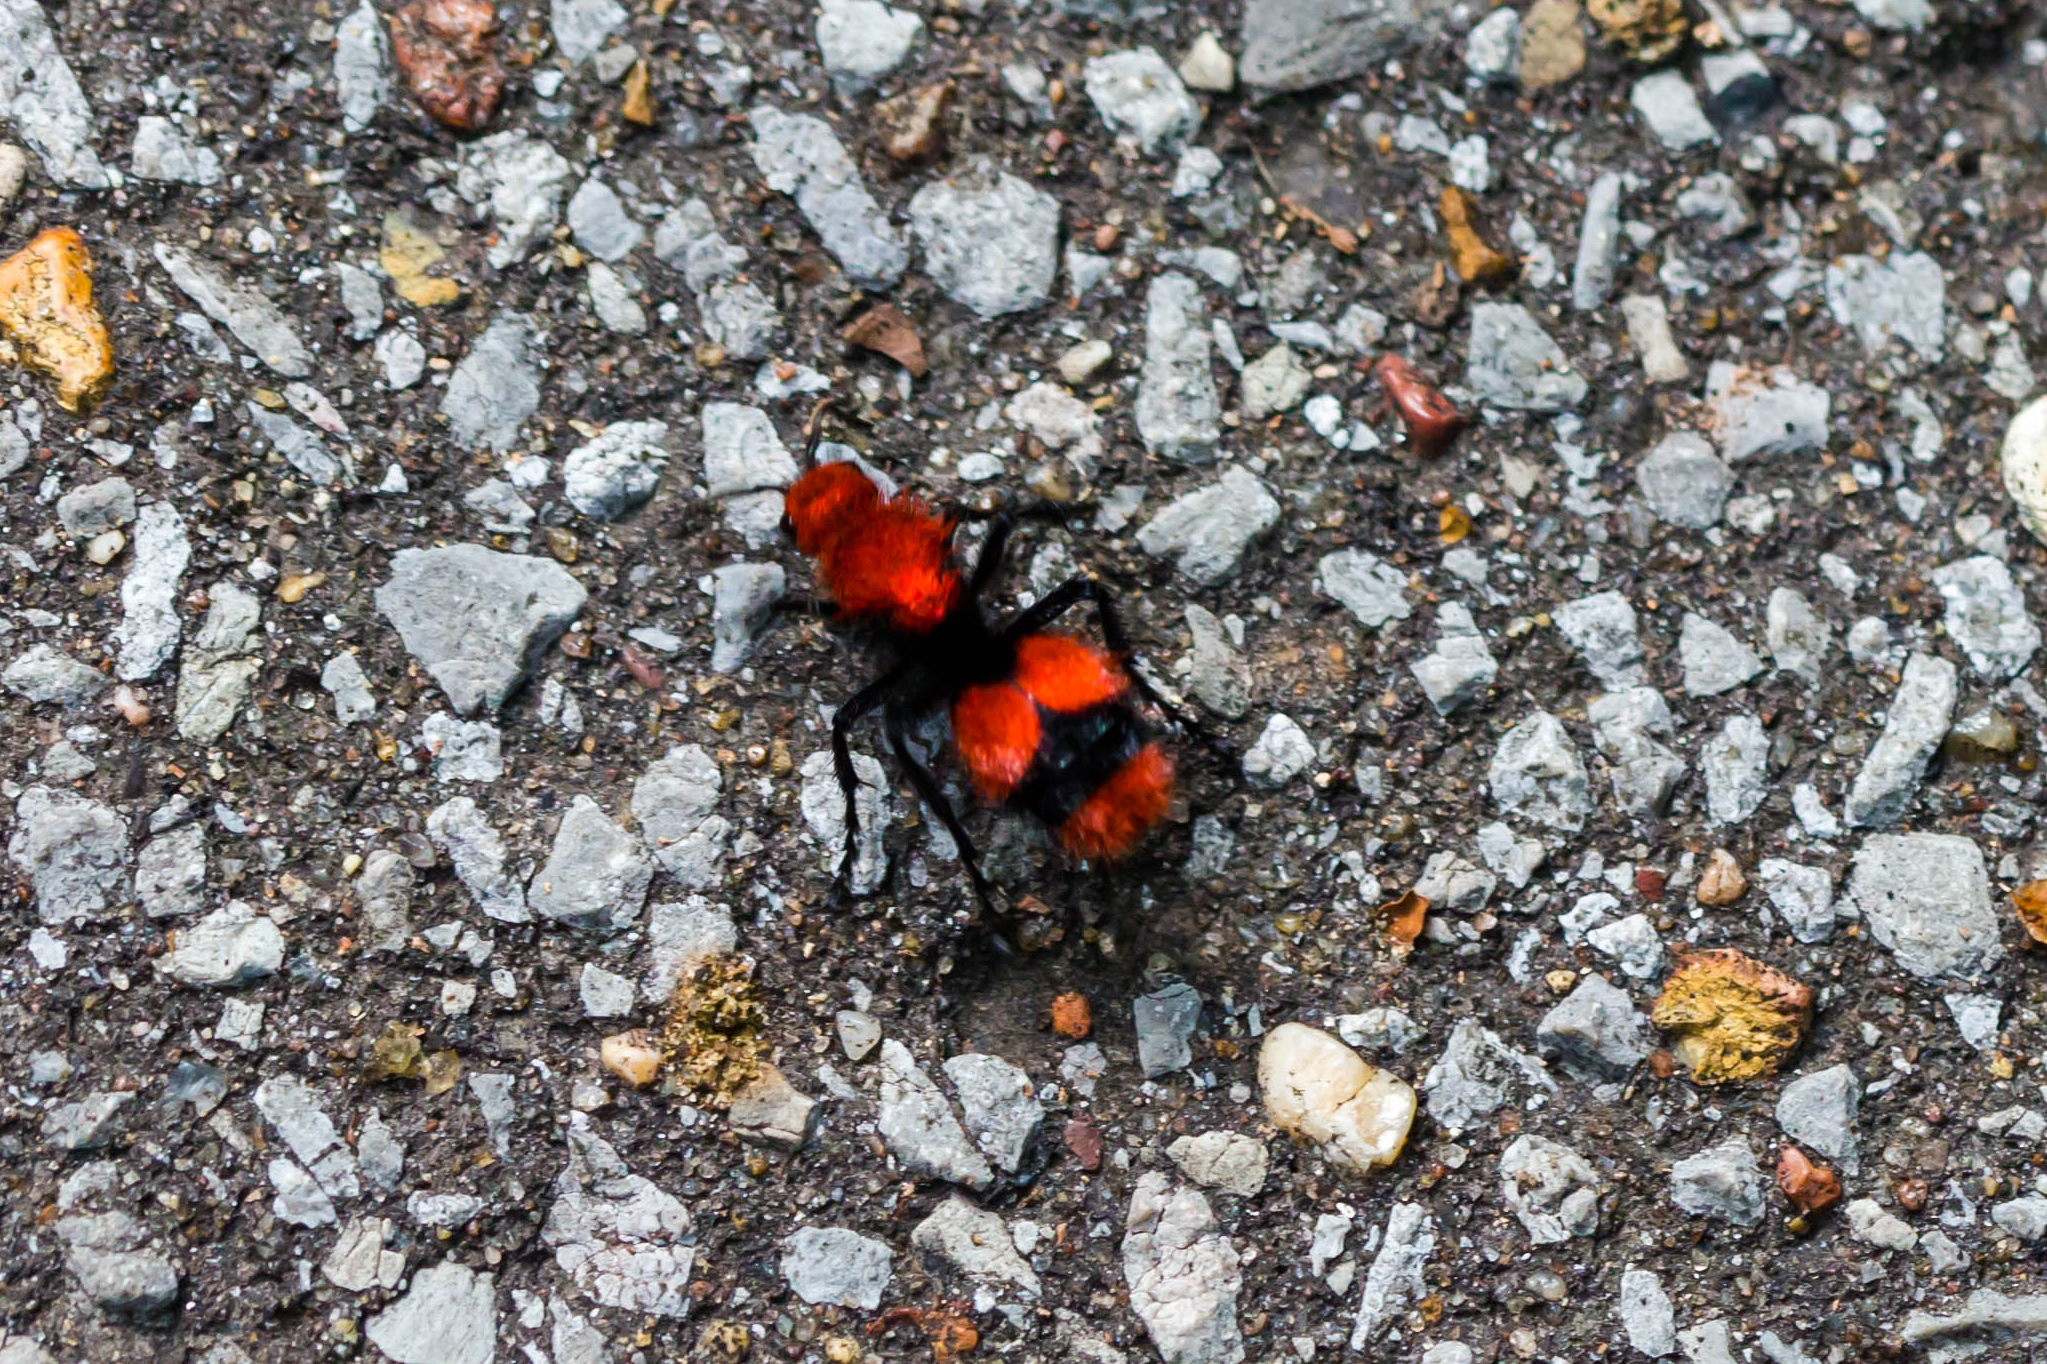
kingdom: Animalia
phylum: Arthropoda
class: Insecta
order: Hymenoptera
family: Mutillidae
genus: Dasymutilla
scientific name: Dasymutilla occidentalis
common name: Common eastern velvet ant
